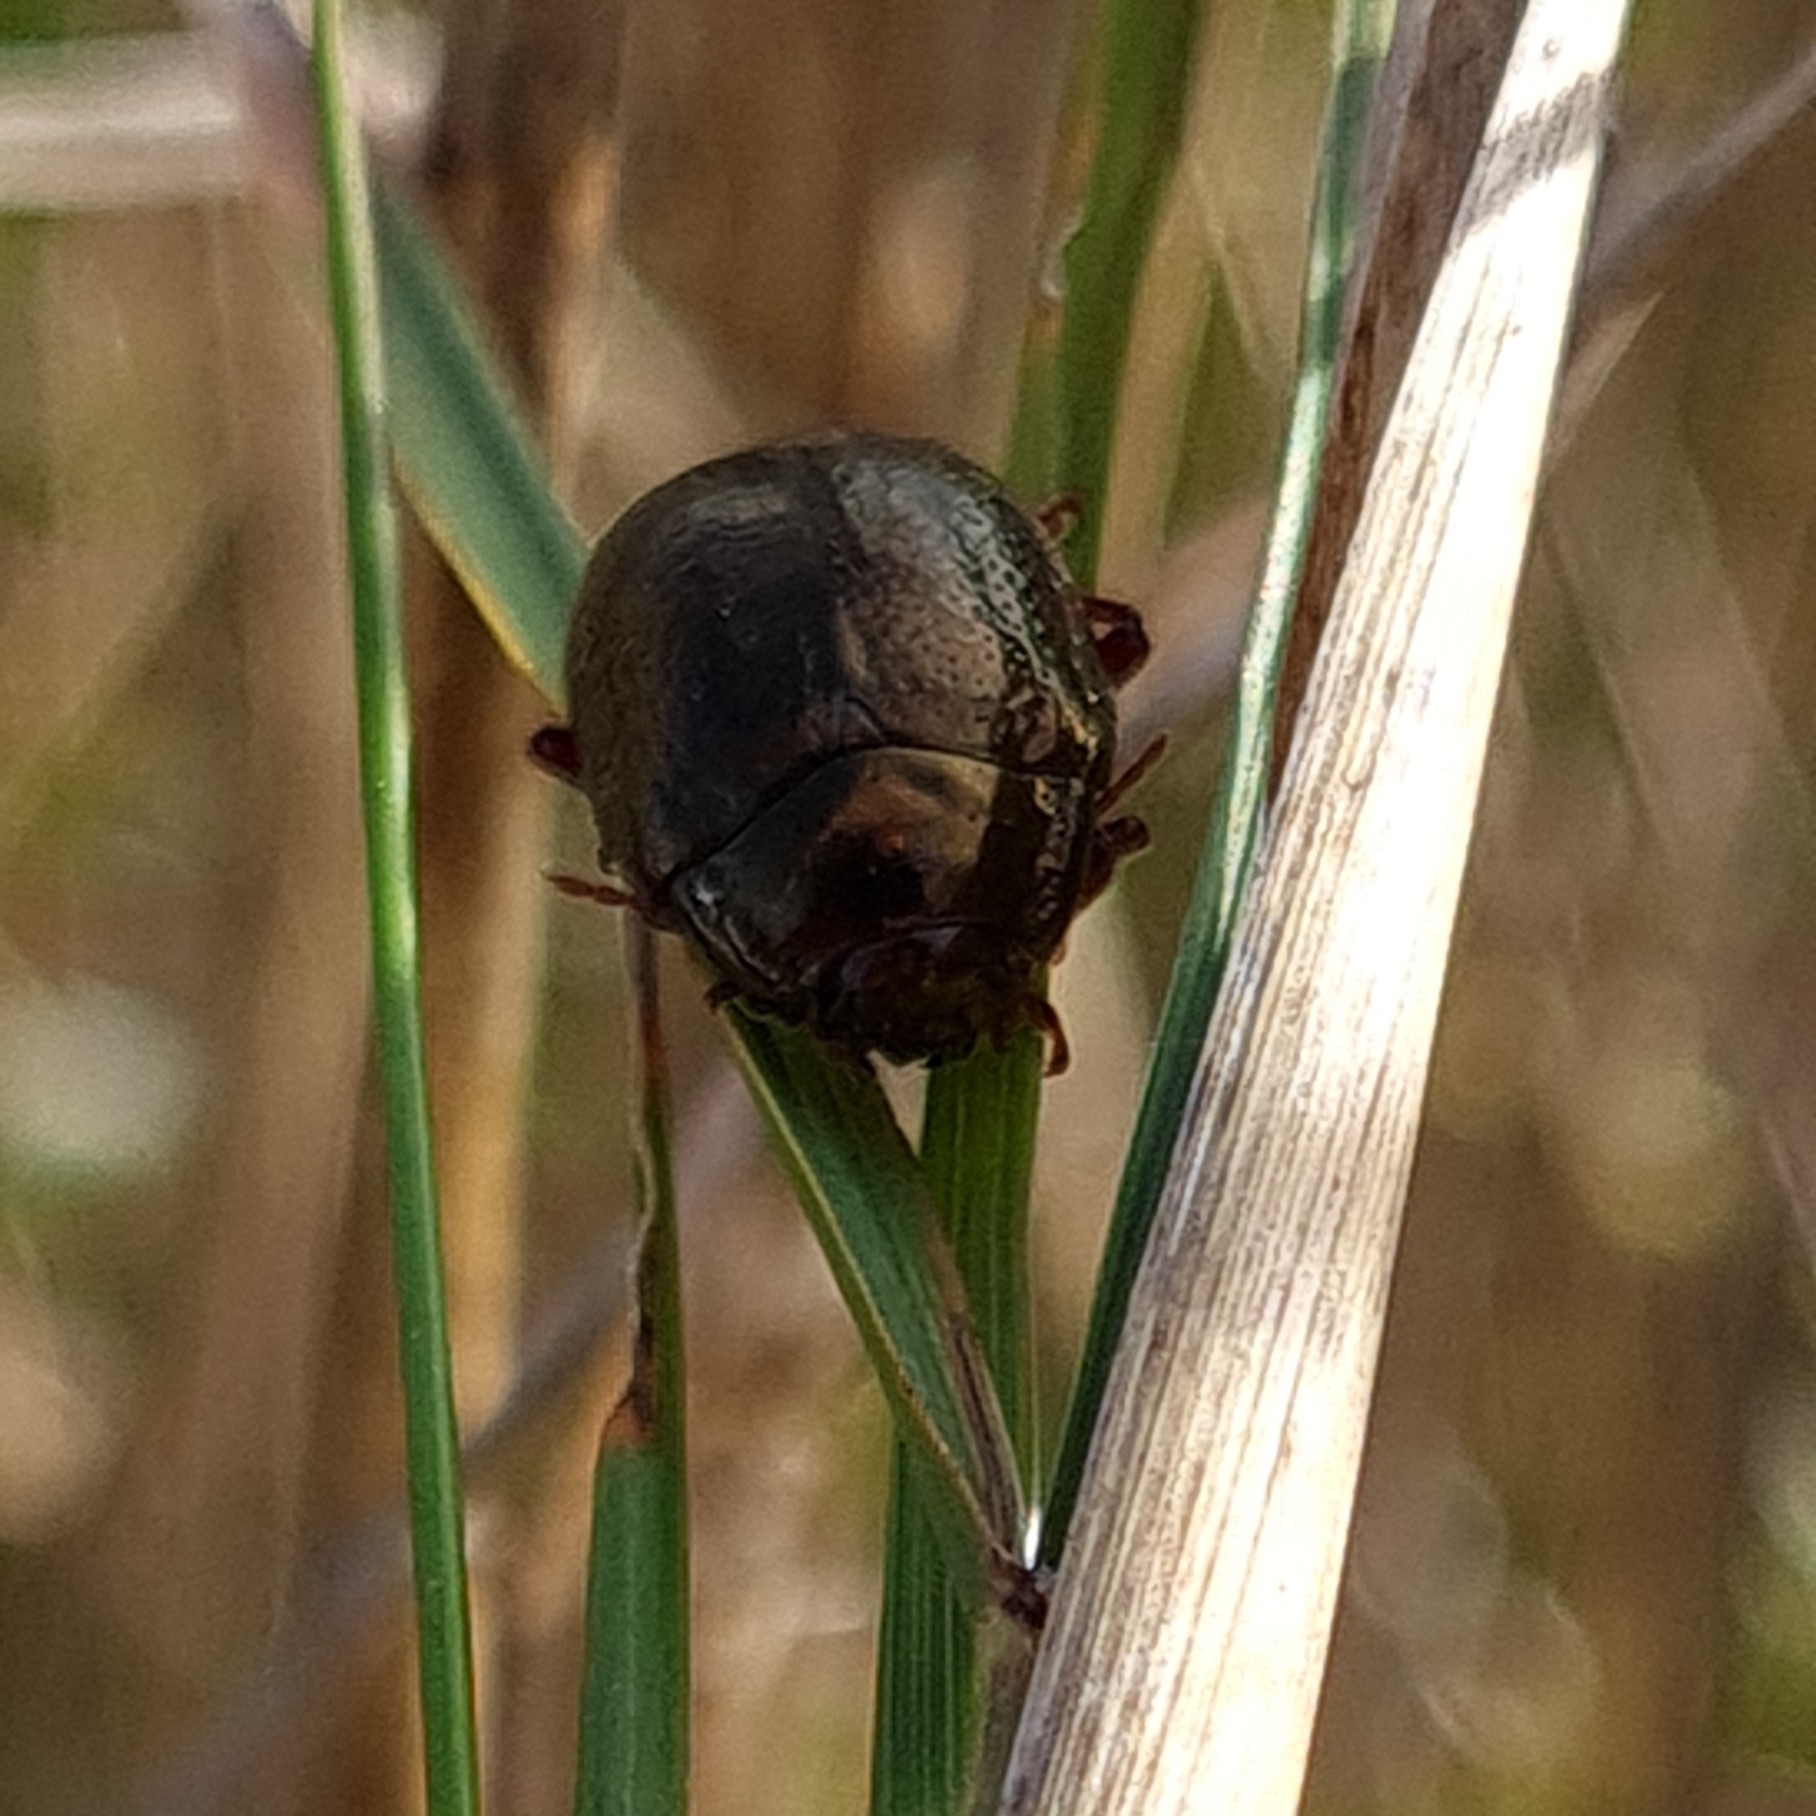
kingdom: Animalia
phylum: Arthropoda
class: Insecta
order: Coleoptera
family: Chrysomelidae
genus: Chrysolina
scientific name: Chrysolina bankii
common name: Leaf beetle
